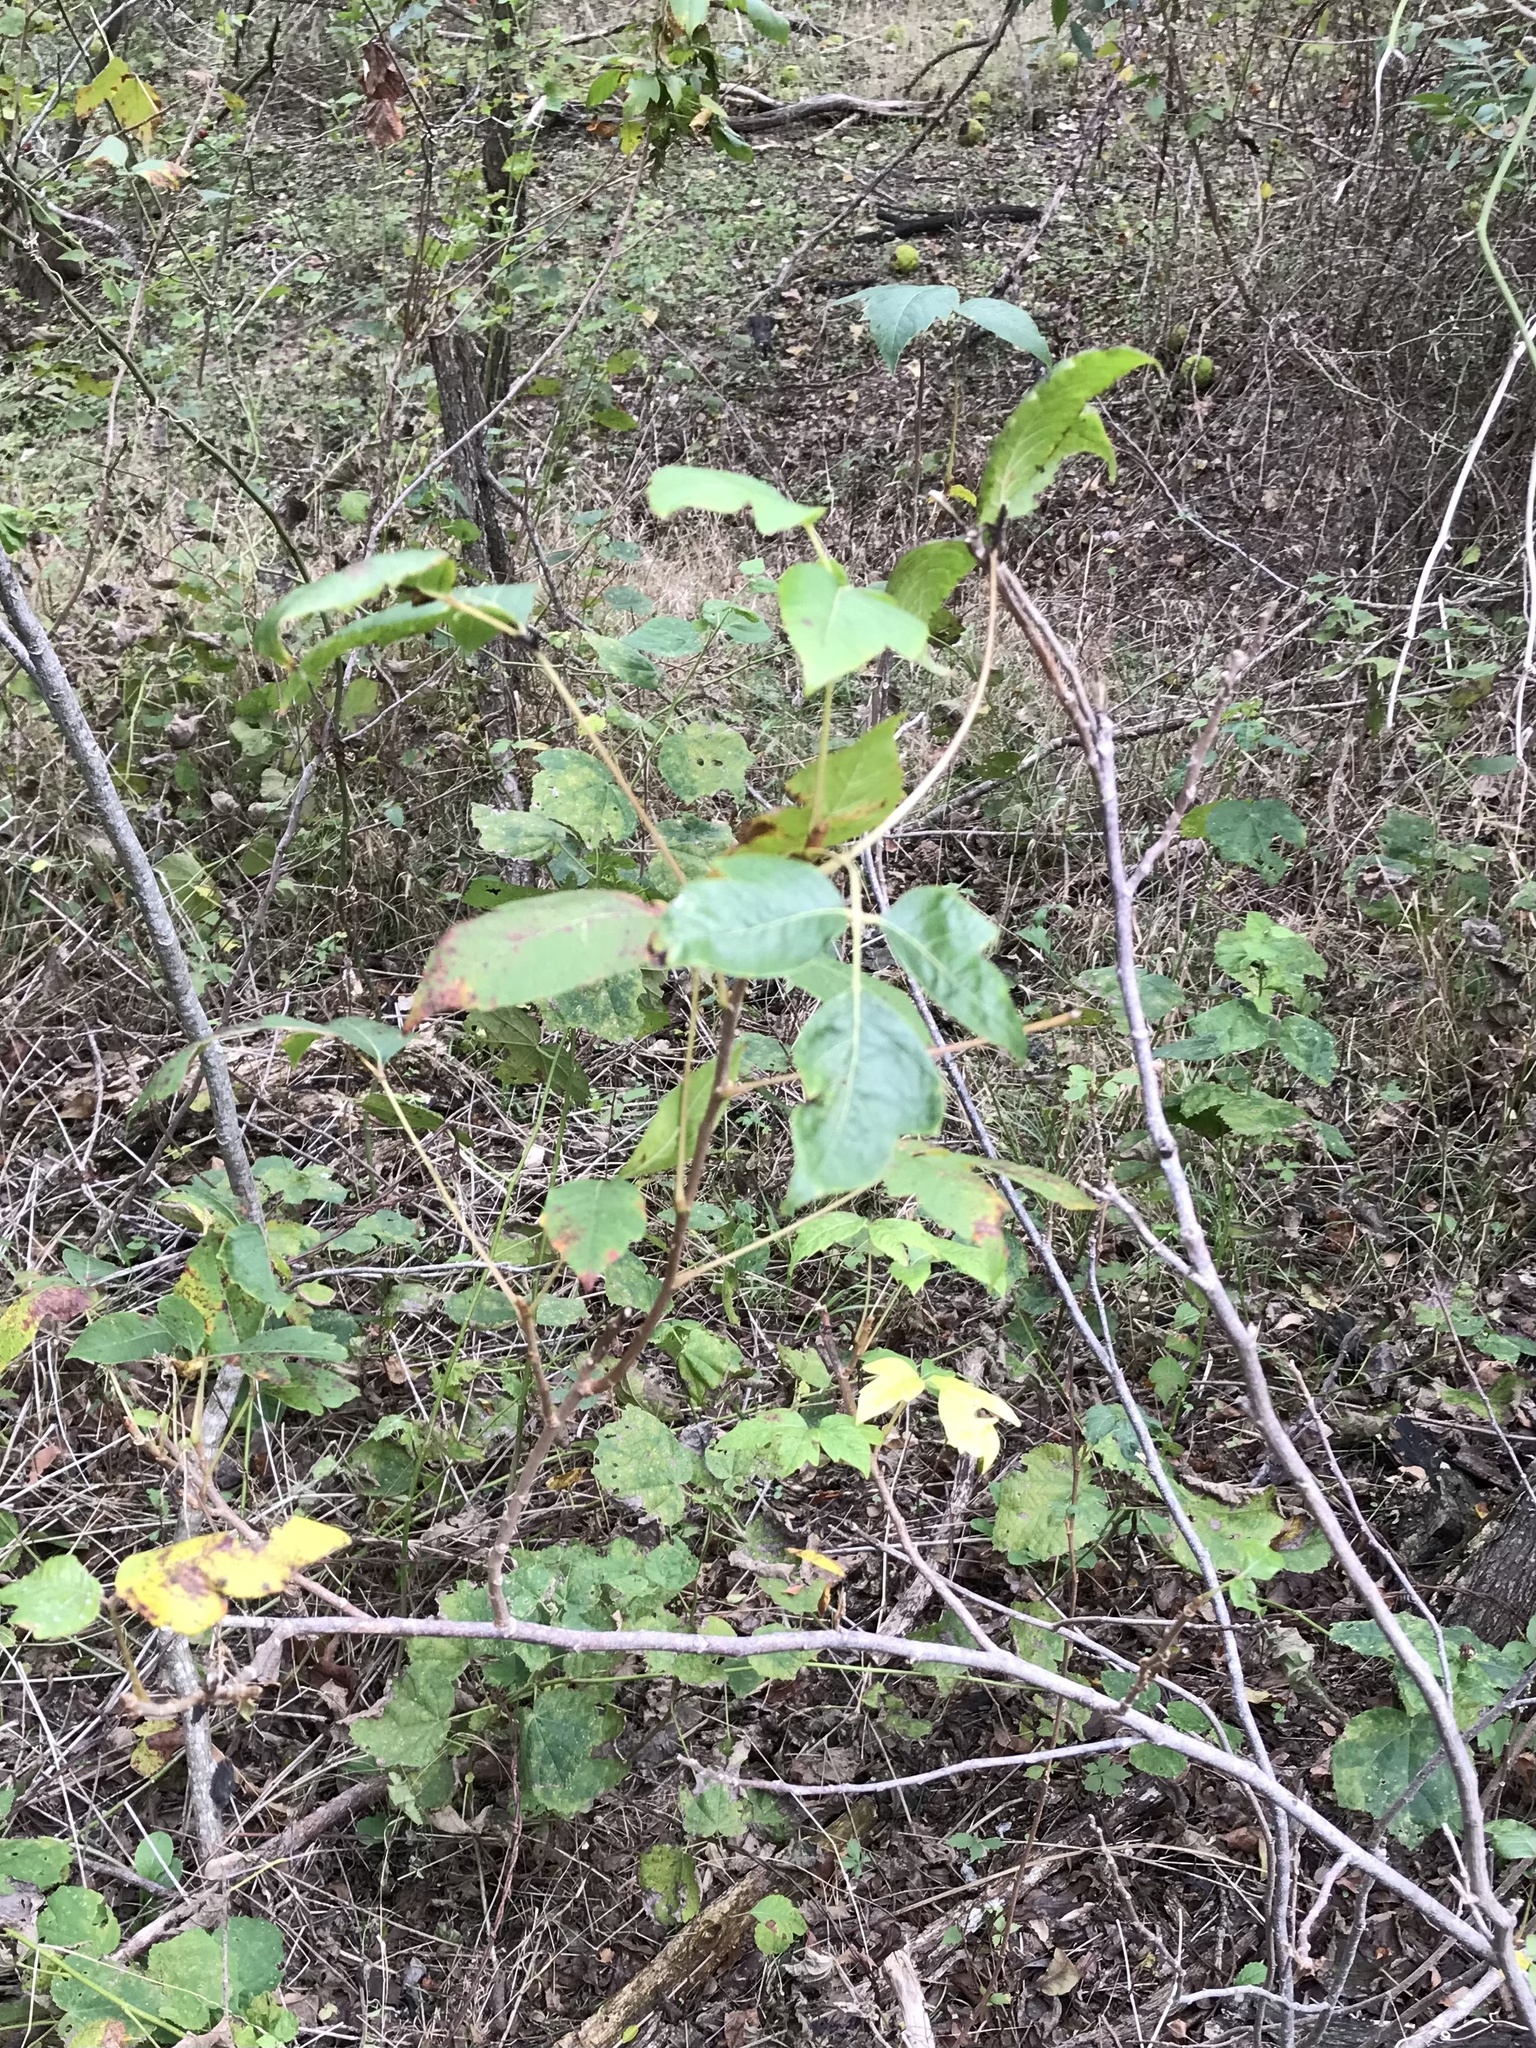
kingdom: Plantae
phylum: Tracheophyta
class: Magnoliopsida
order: Sapindales
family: Anacardiaceae
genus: Toxicodendron
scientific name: Toxicodendron radicans
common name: Poison ivy
